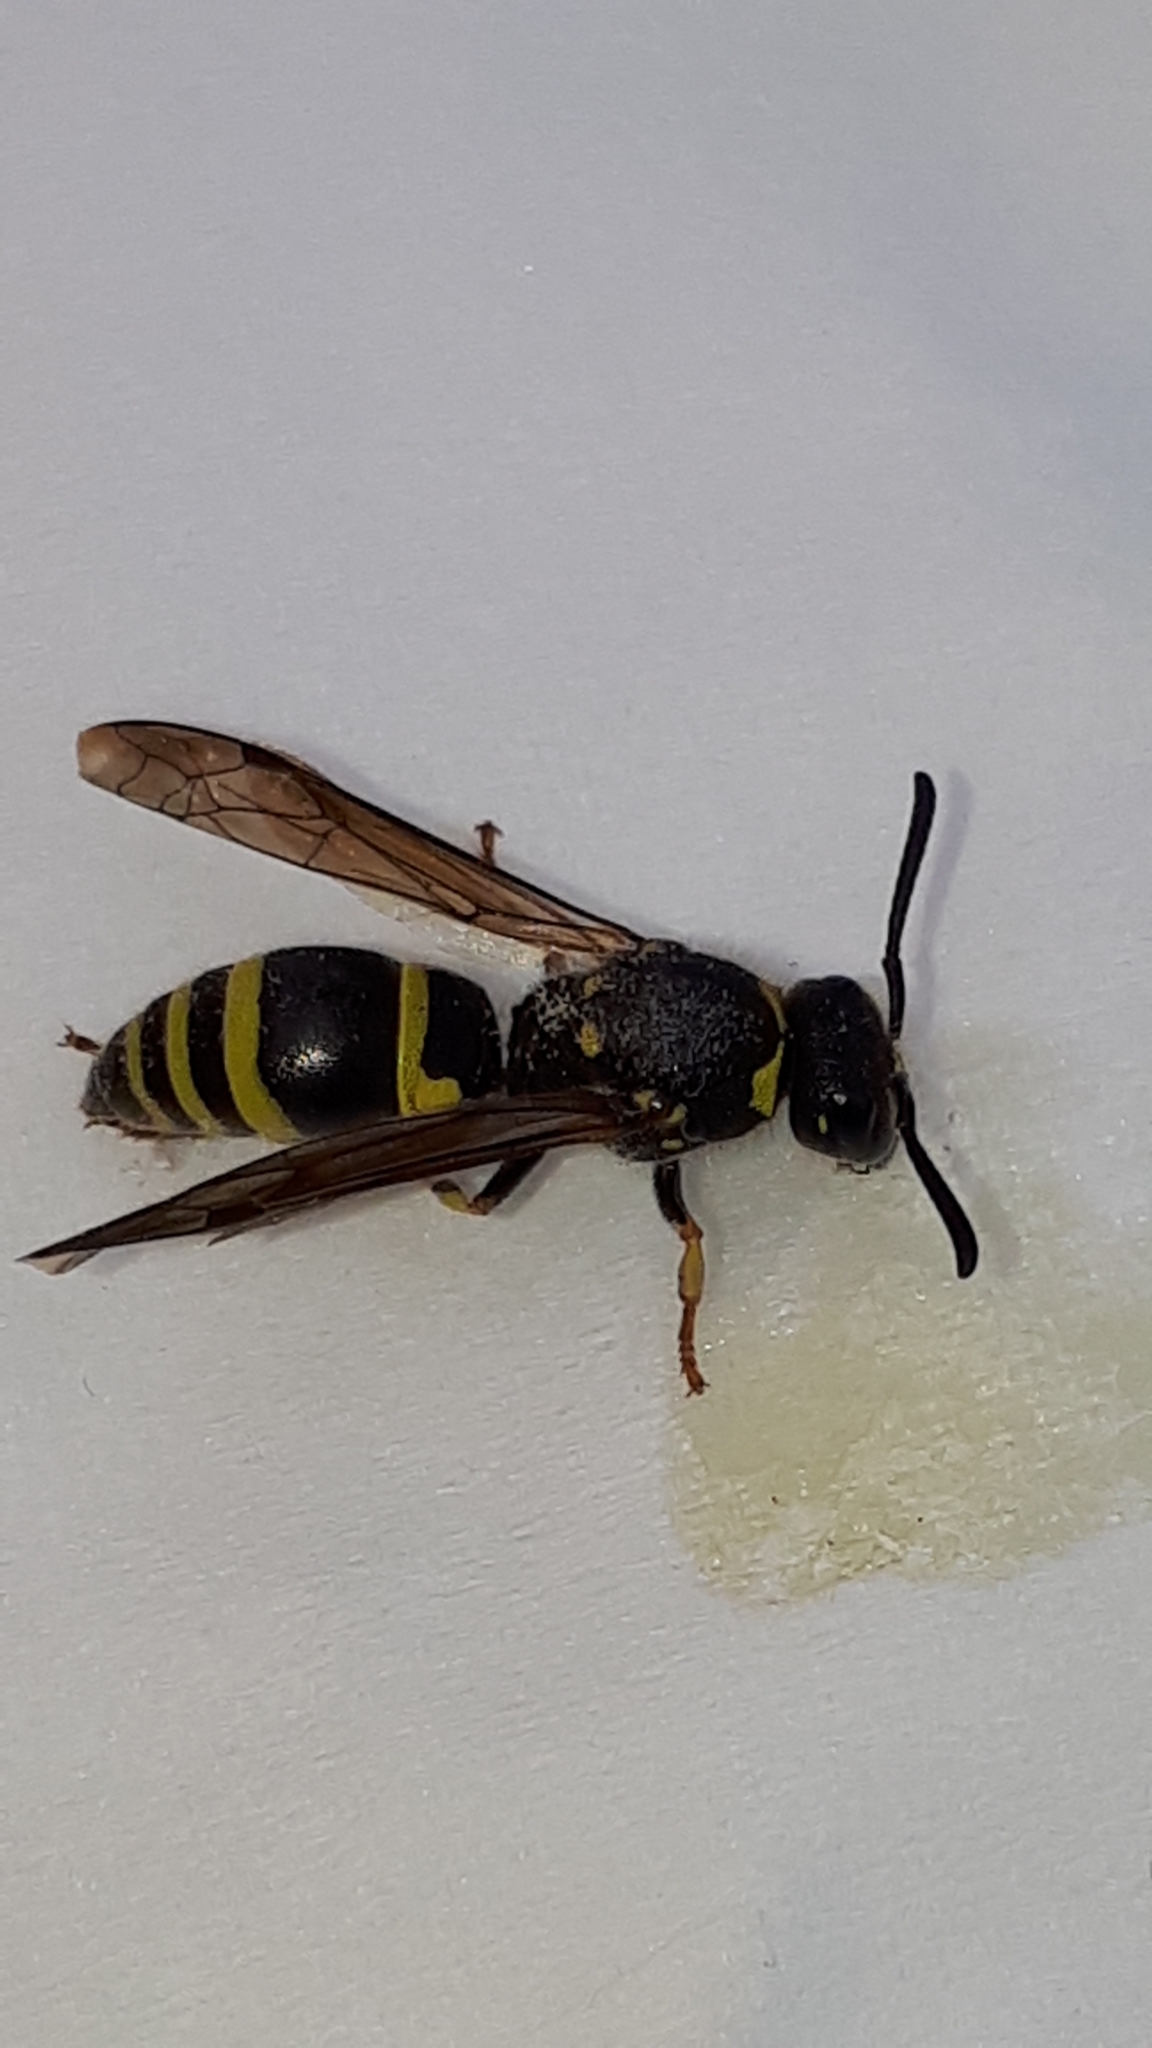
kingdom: Animalia
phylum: Arthropoda
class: Insecta
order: Hymenoptera
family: Vespidae
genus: Ancistrocerus
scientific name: Ancistrocerus nigricornis
